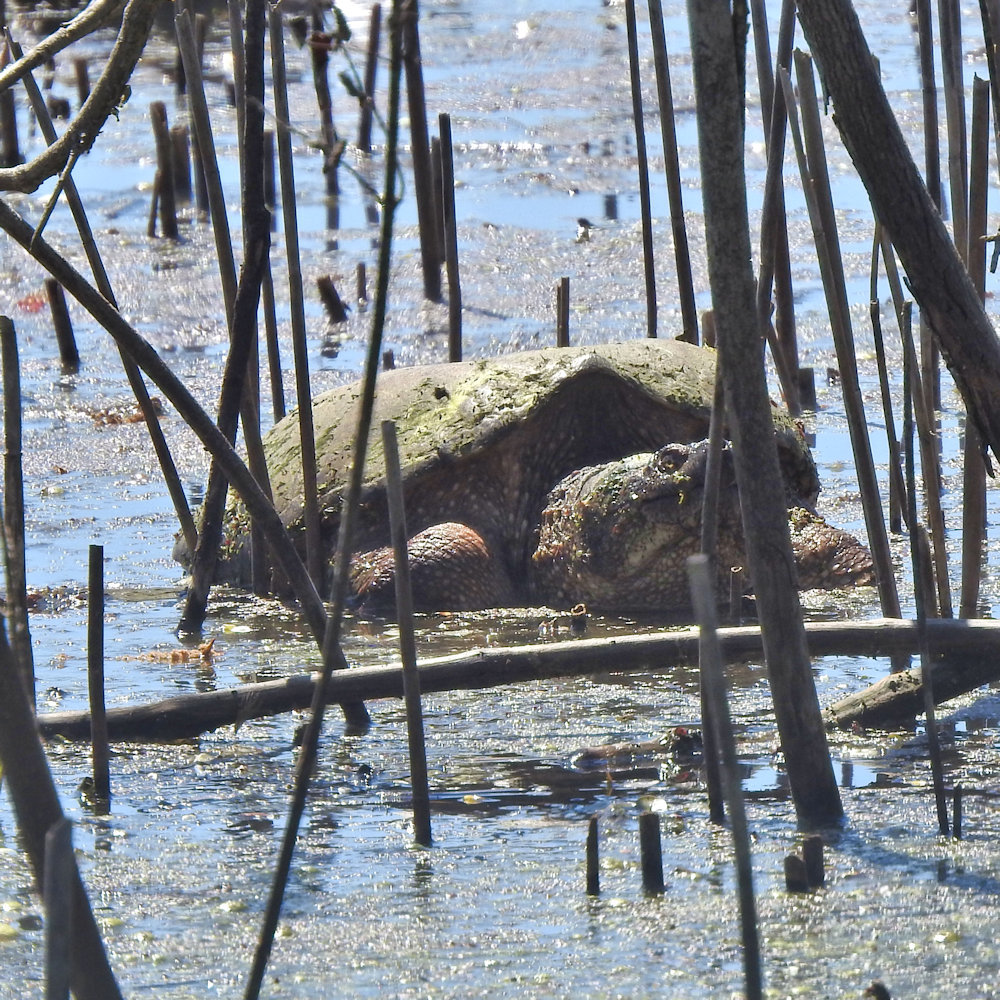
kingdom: Animalia
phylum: Chordata
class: Testudines
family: Chelydridae
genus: Chelydra
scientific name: Chelydra serpentina
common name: Common snapping turtle
